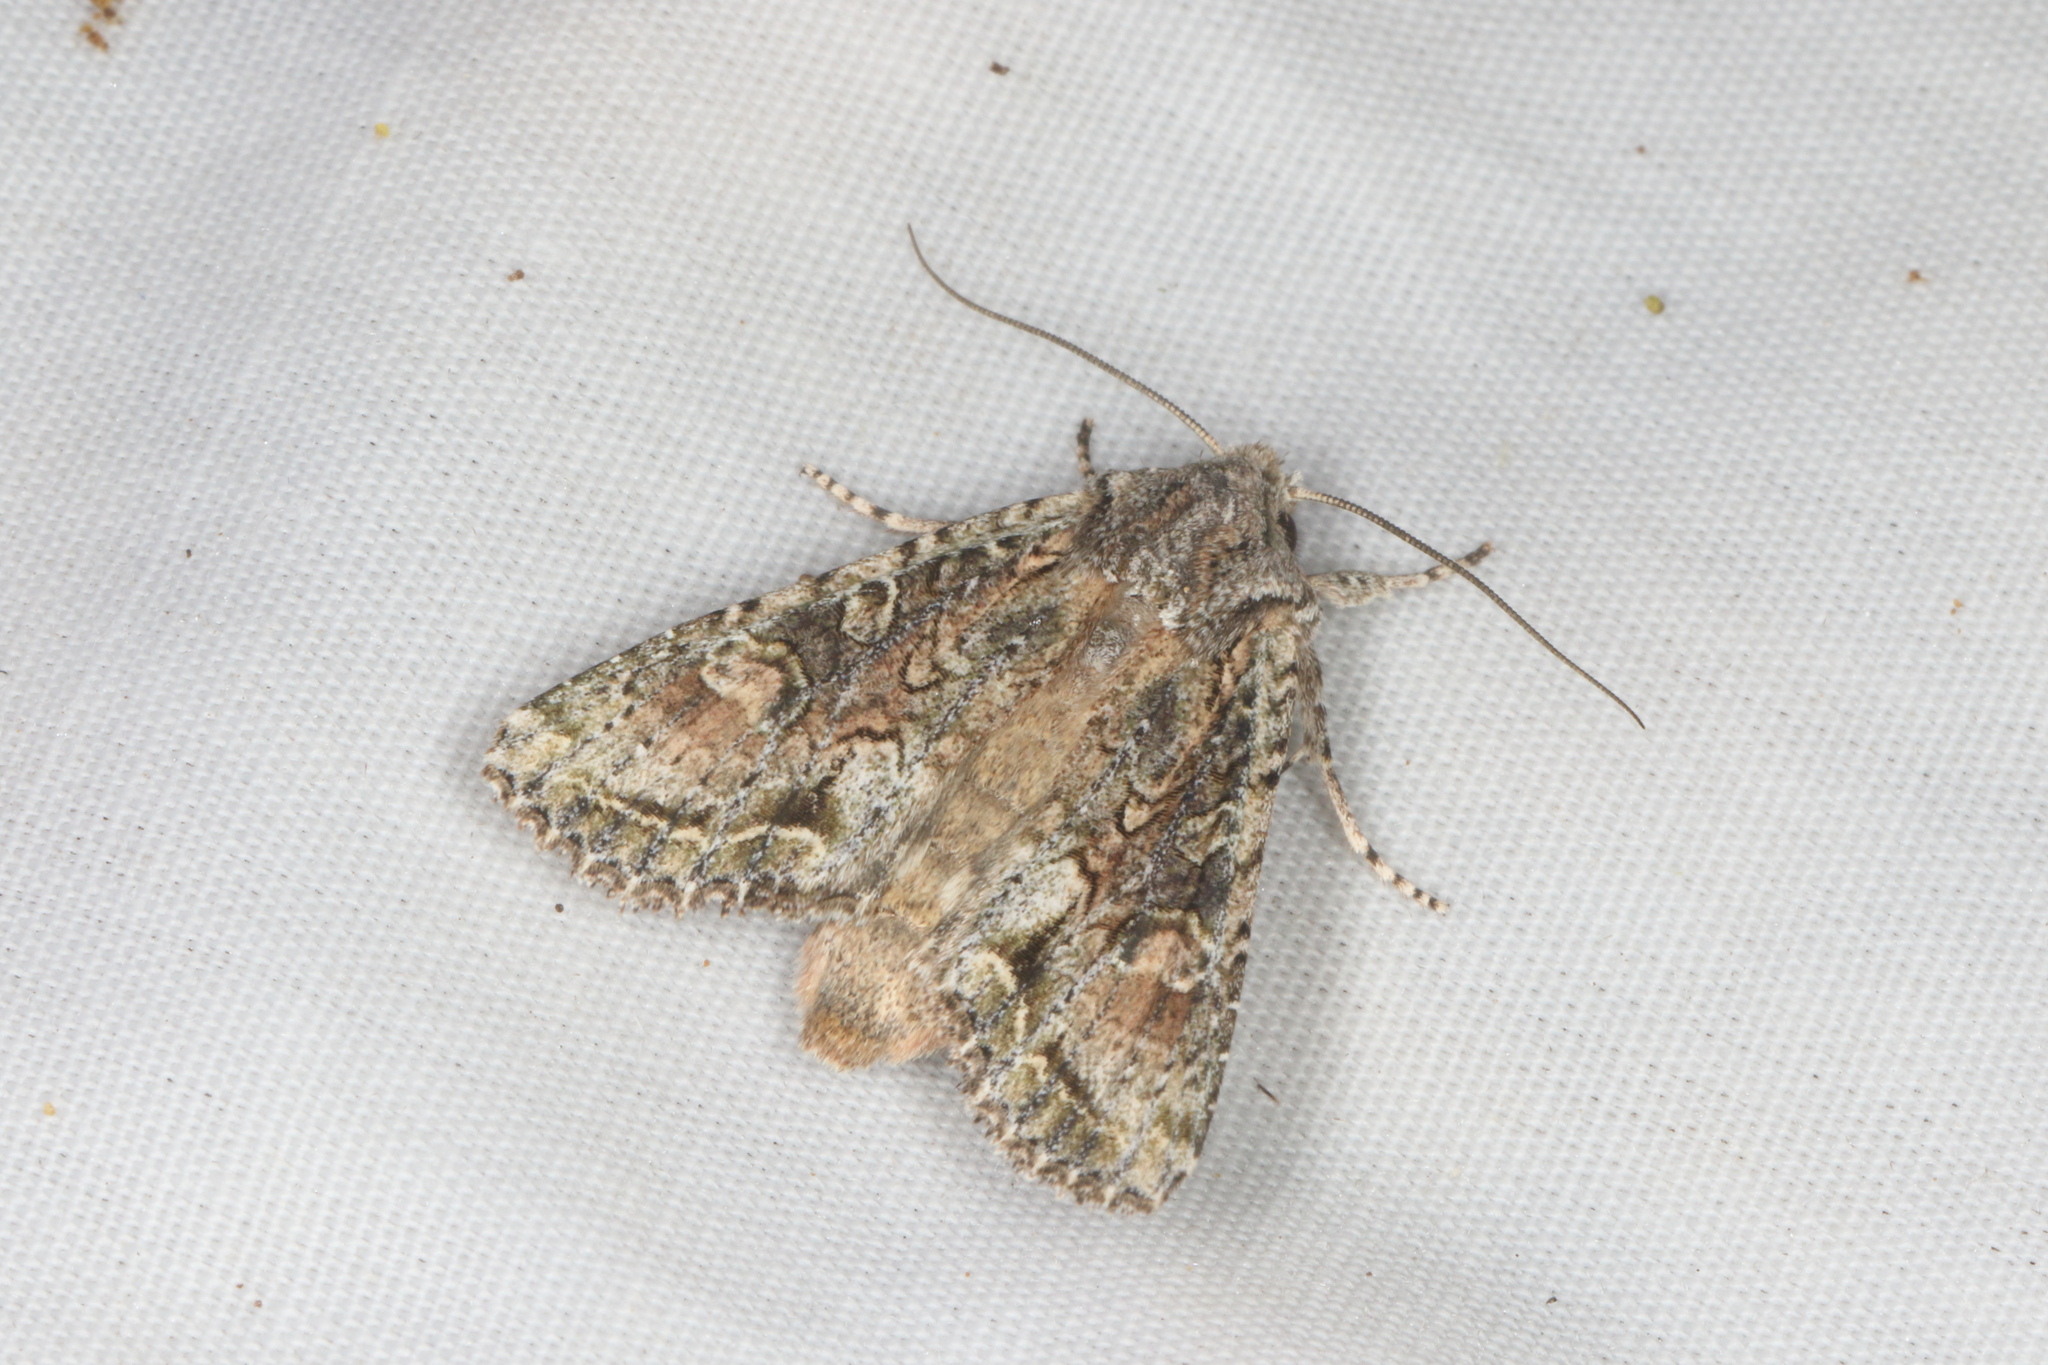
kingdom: Animalia
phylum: Arthropoda
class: Insecta
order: Lepidoptera
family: Noctuidae
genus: Ichneutica
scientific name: Ichneutica mutans
